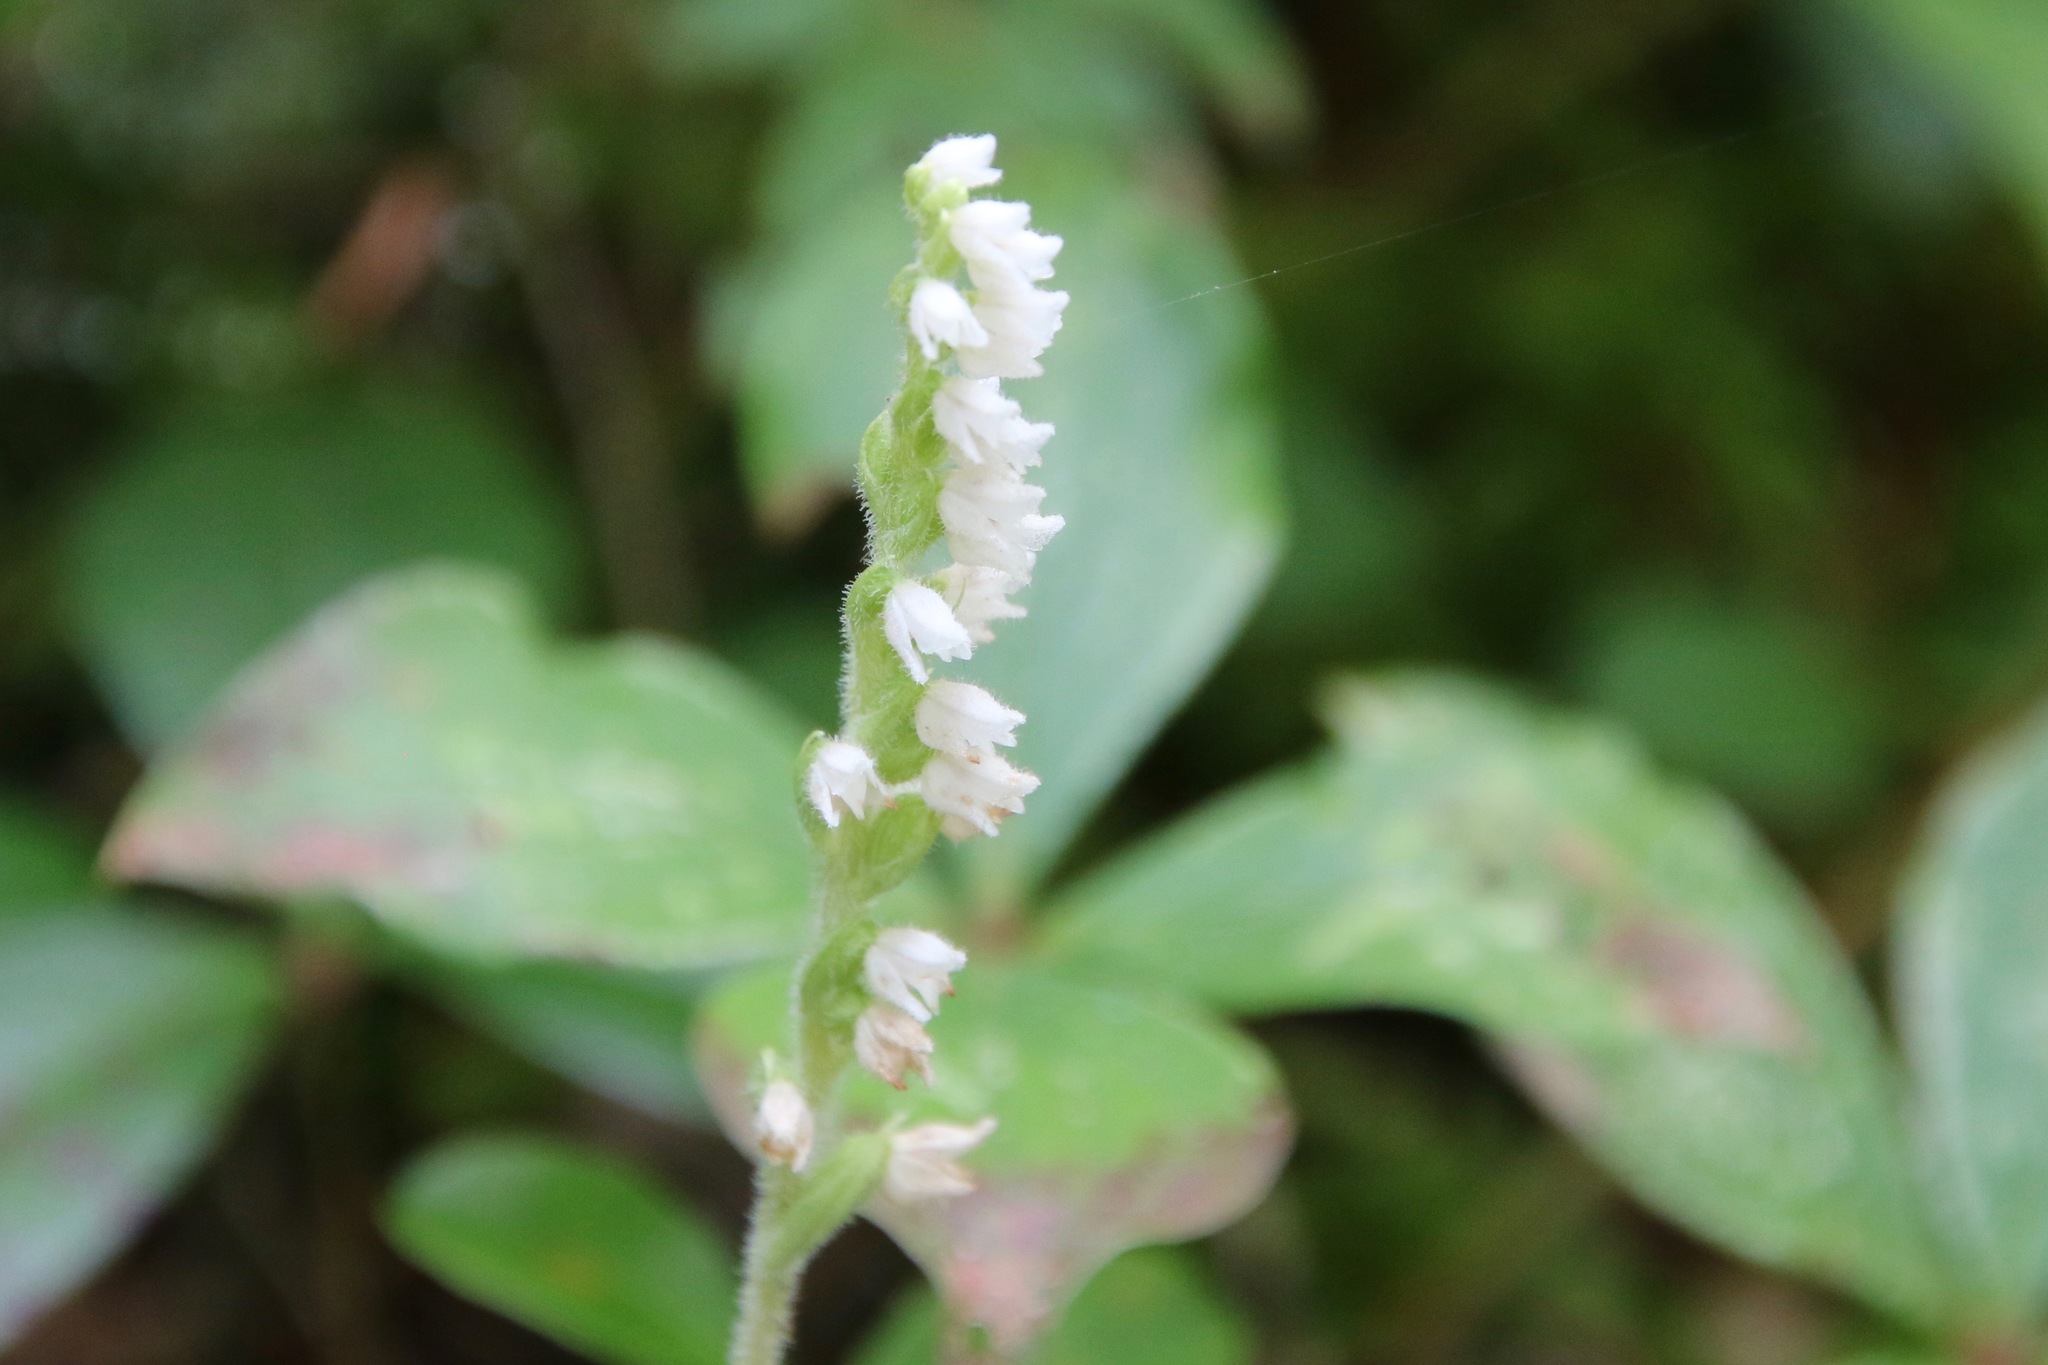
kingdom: Plantae
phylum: Tracheophyta
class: Liliopsida
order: Asparagales
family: Orchidaceae
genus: Goodyera
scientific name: Goodyera repens
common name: Creeping lady's-tresses
